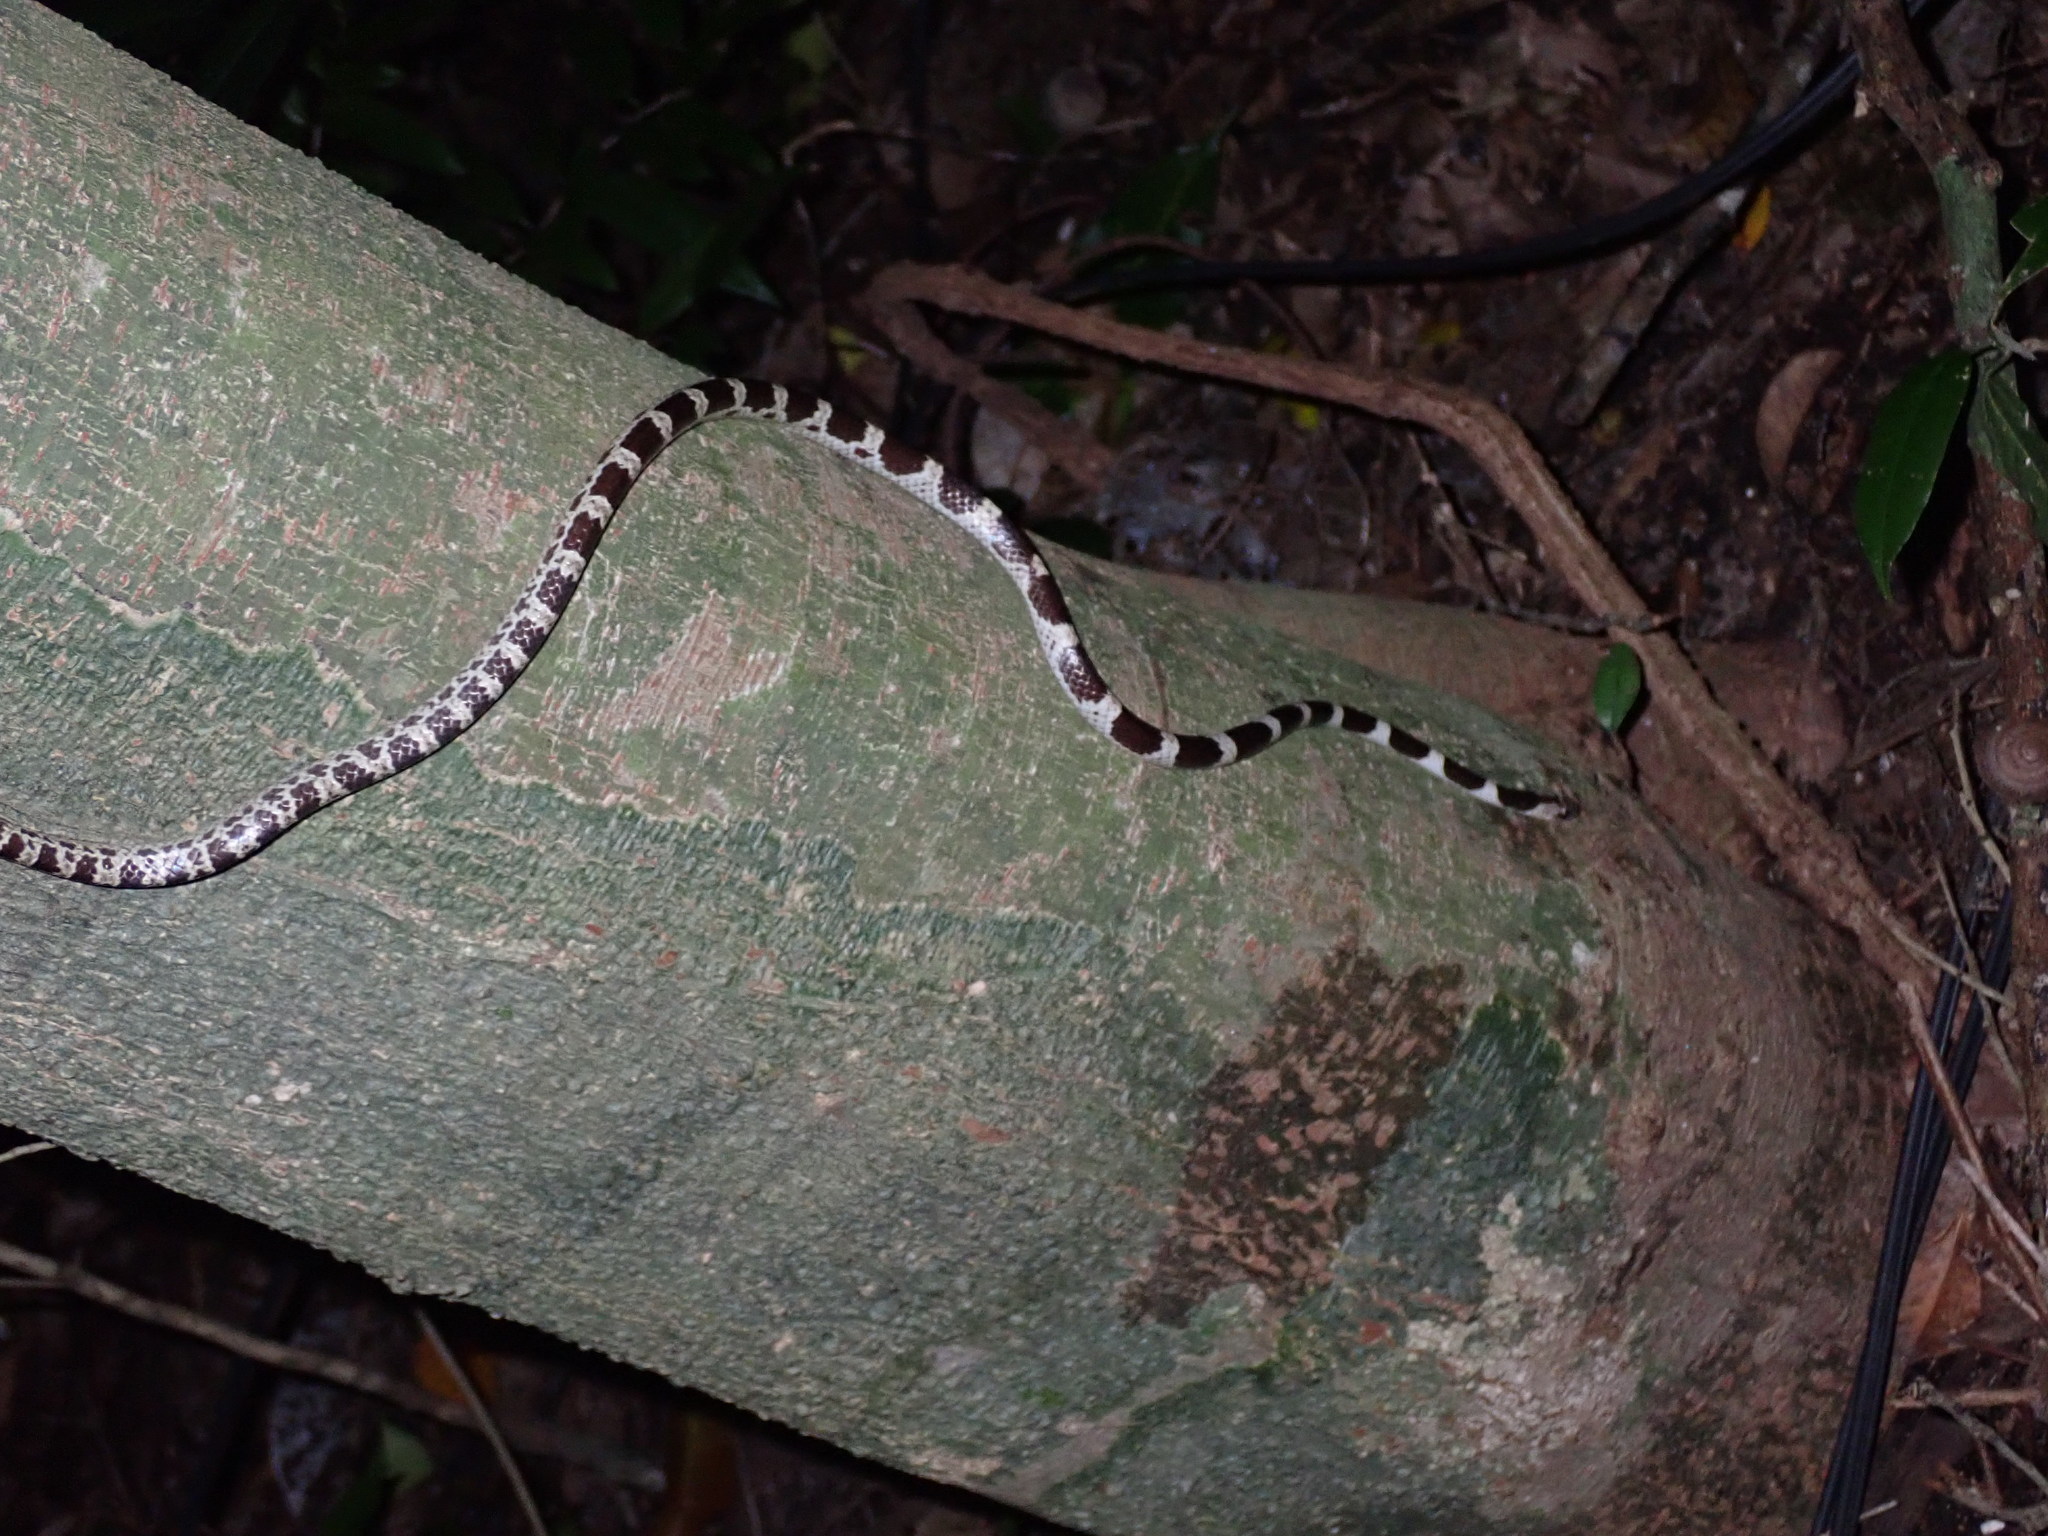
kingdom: Animalia
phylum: Chordata
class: Squamata
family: Colubridae
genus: Lycodon
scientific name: Lycodon davisonii
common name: Blanford's bridal snake
